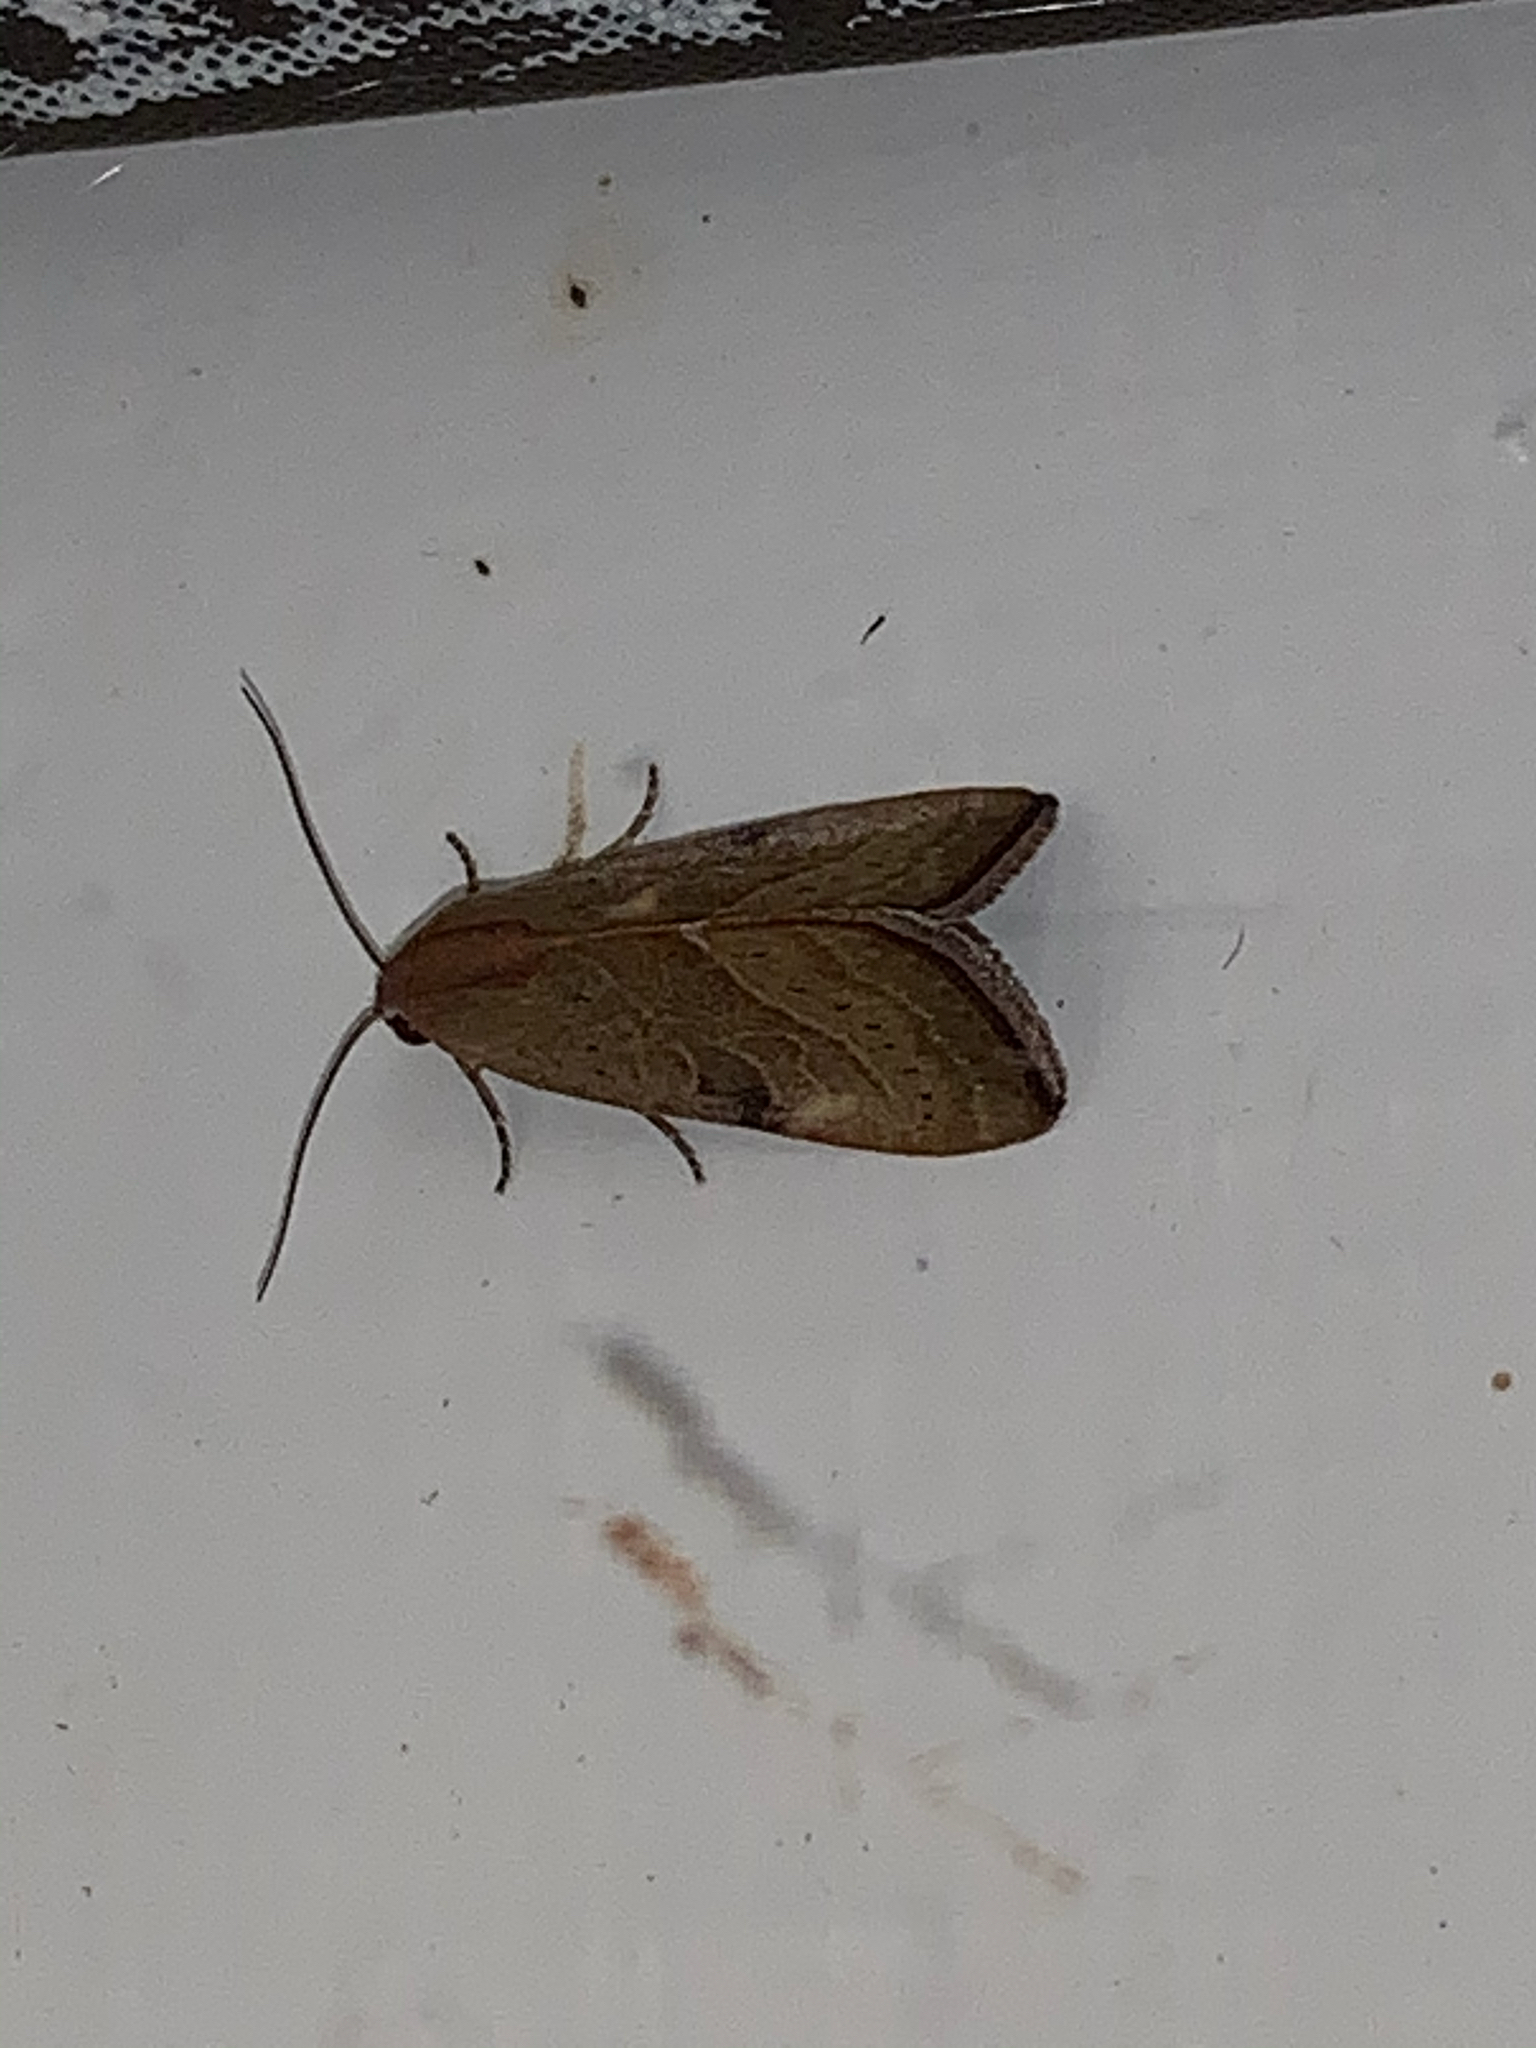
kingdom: Animalia
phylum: Arthropoda
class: Insecta
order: Lepidoptera
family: Noctuidae
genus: Galgula
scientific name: Galgula partita
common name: Wedgeling
